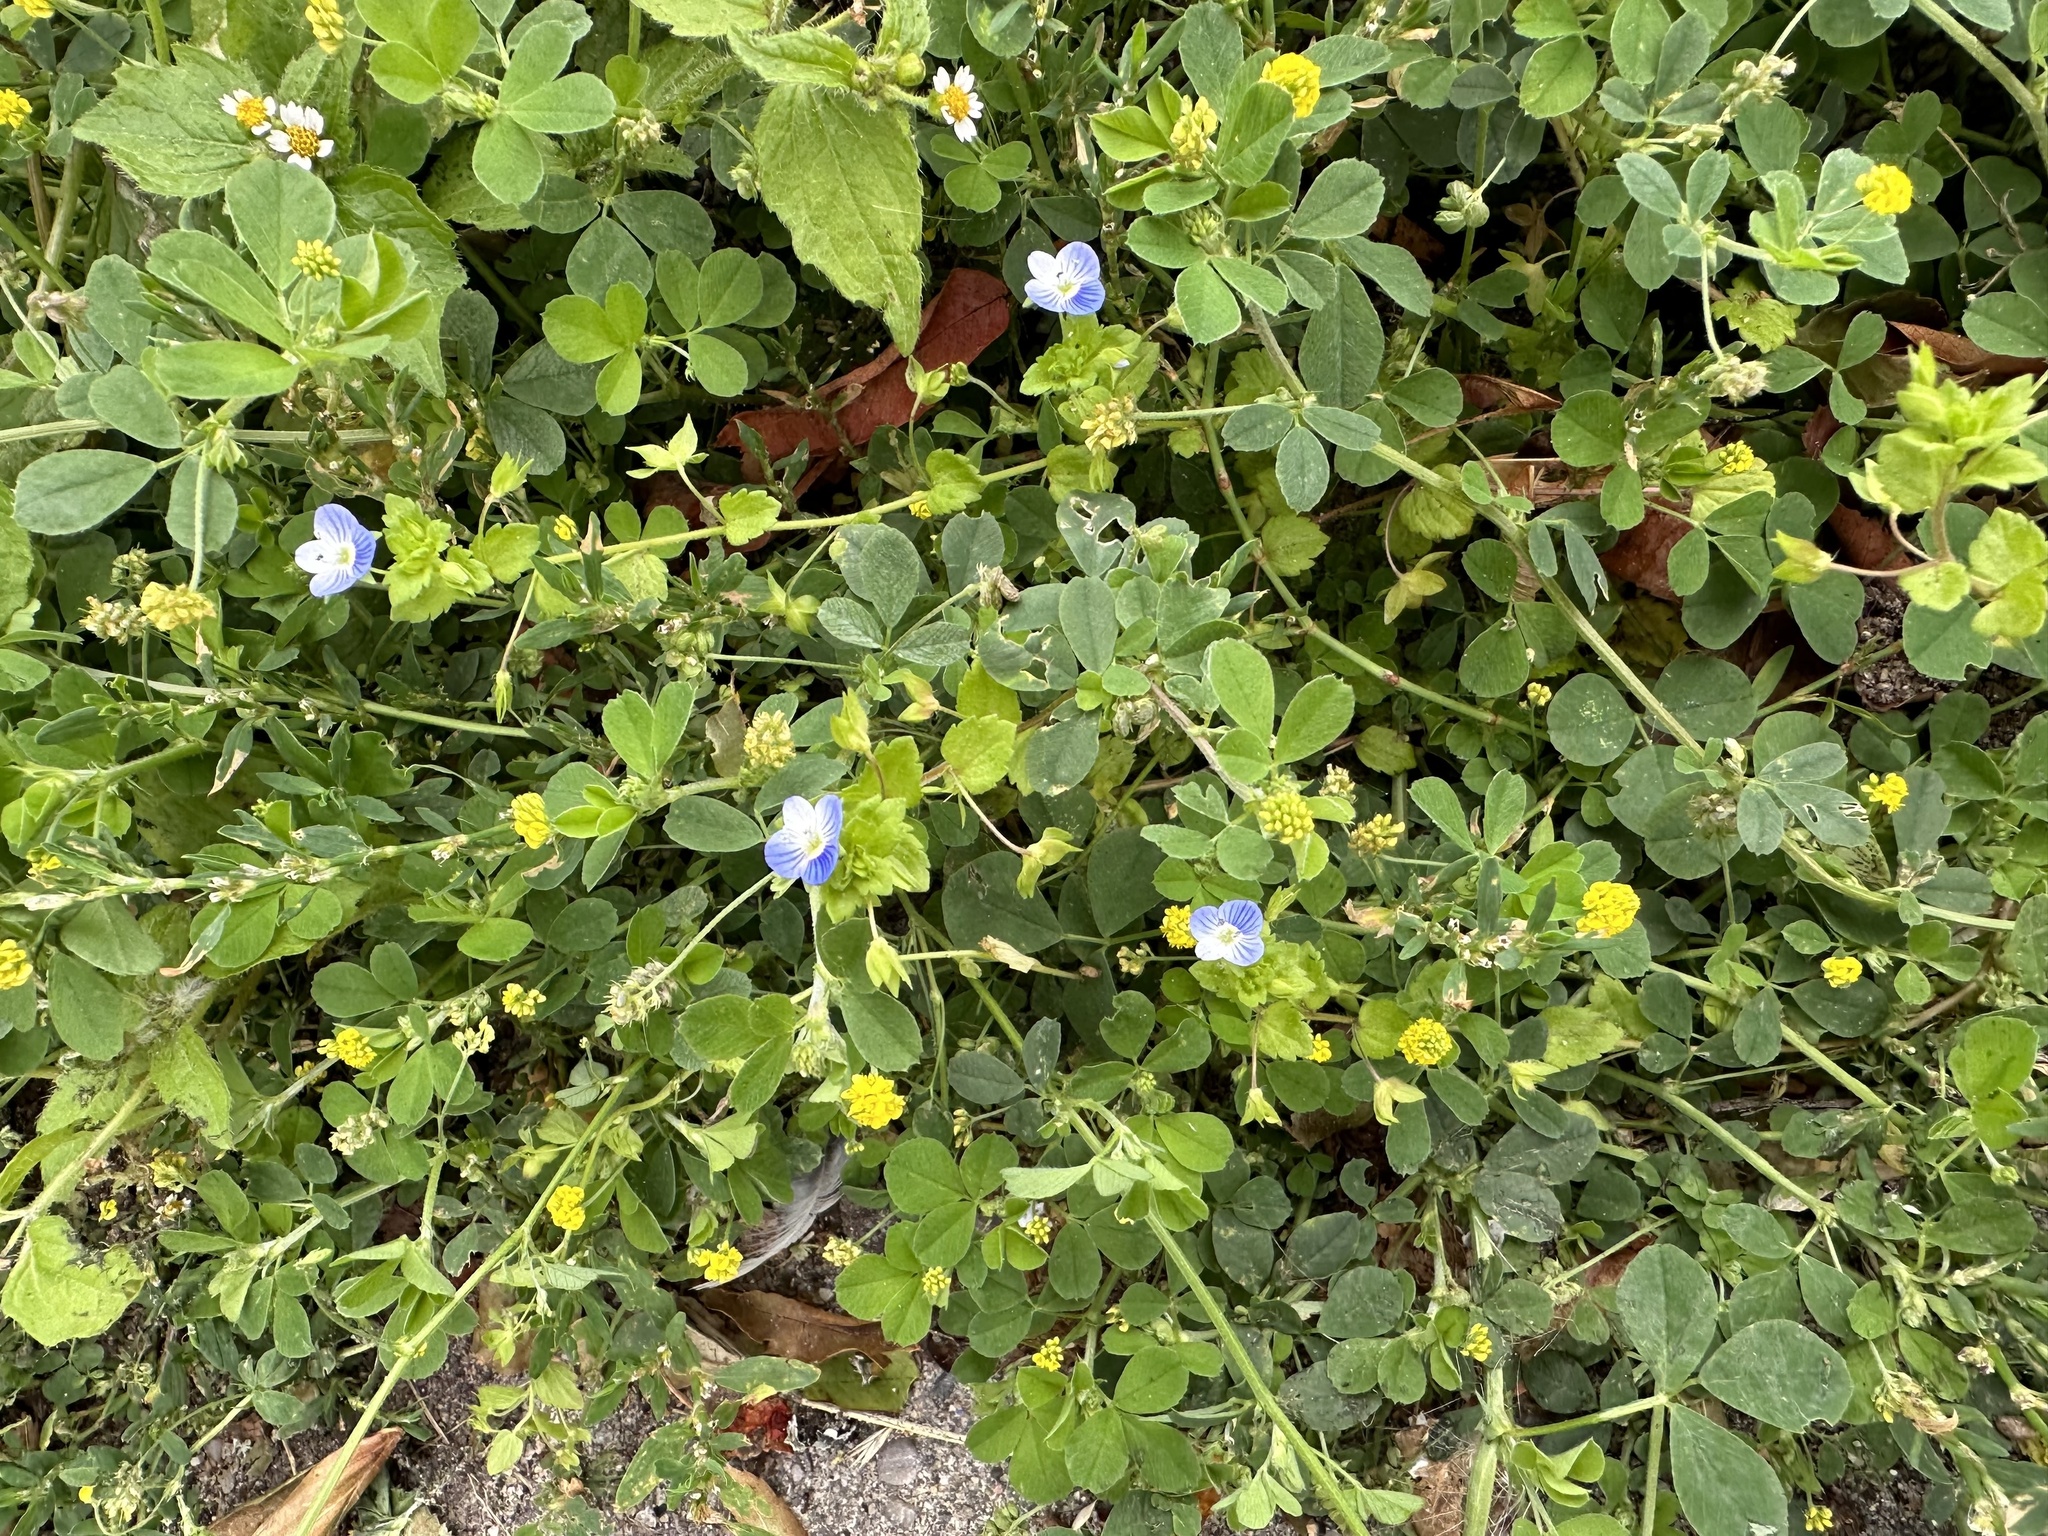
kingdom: Plantae
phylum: Tracheophyta
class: Magnoliopsida
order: Lamiales
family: Plantaginaceae
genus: Veronica
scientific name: Veronica persica
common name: Common field-speedwell
